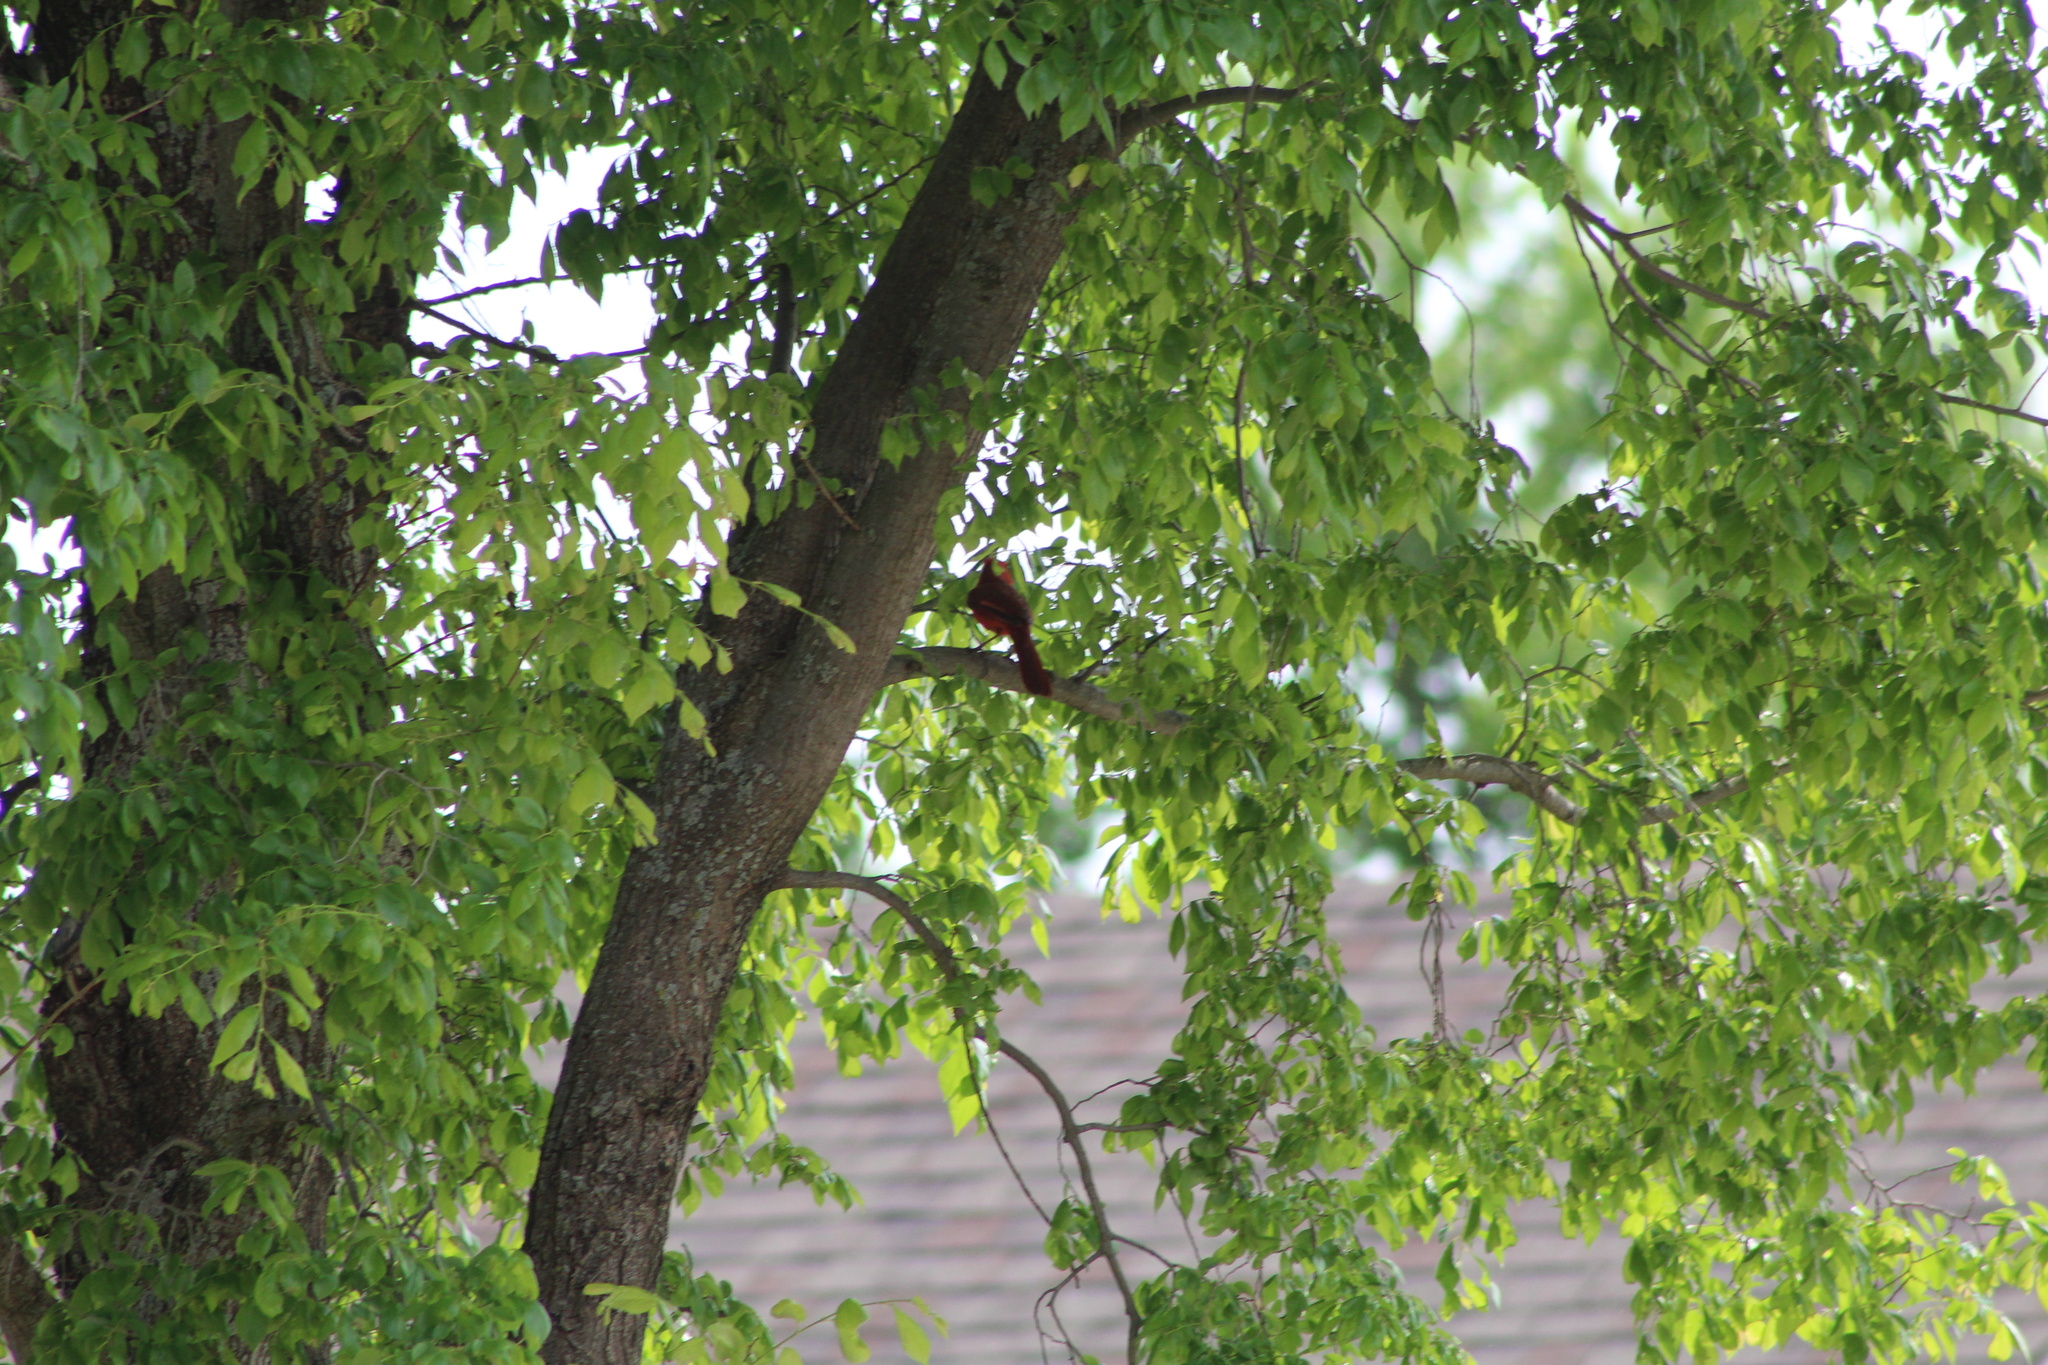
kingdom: Animalia
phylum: Chordata
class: Aves
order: Passeriformes
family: Cardinalidae
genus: Cardinalis
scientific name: Cardinalis cardinalis
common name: Northern cardinal
